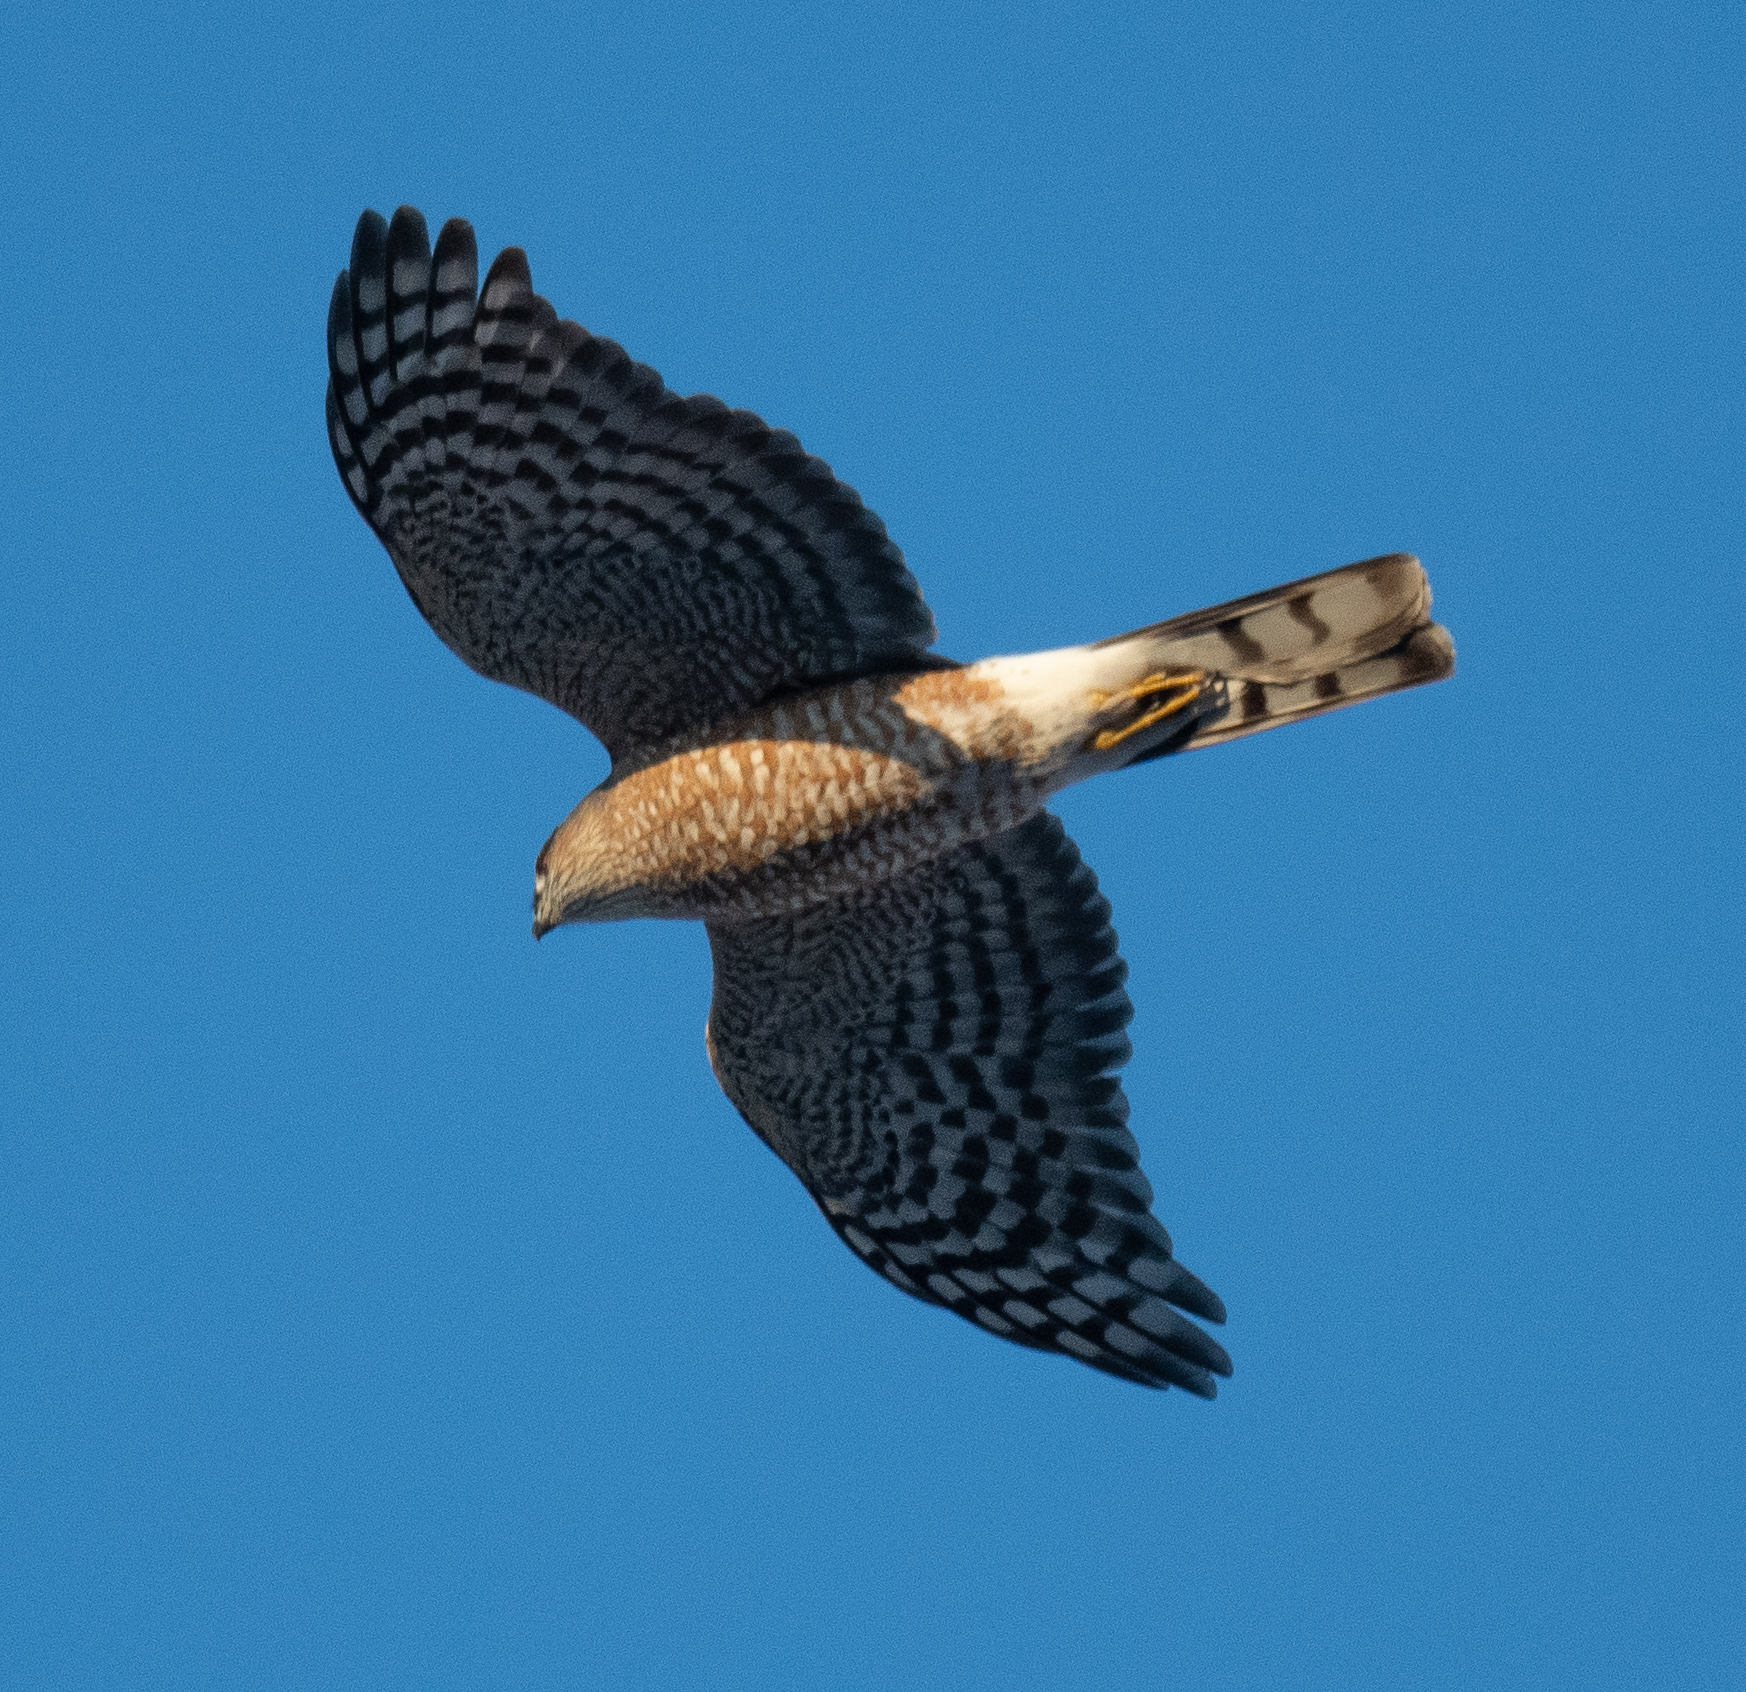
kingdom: Animalia
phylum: Chordata
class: Aves
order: Accipitriformes
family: Accipitridae
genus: Accipiter
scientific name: Accipiter striatus
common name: Sharp-shinned hawk
